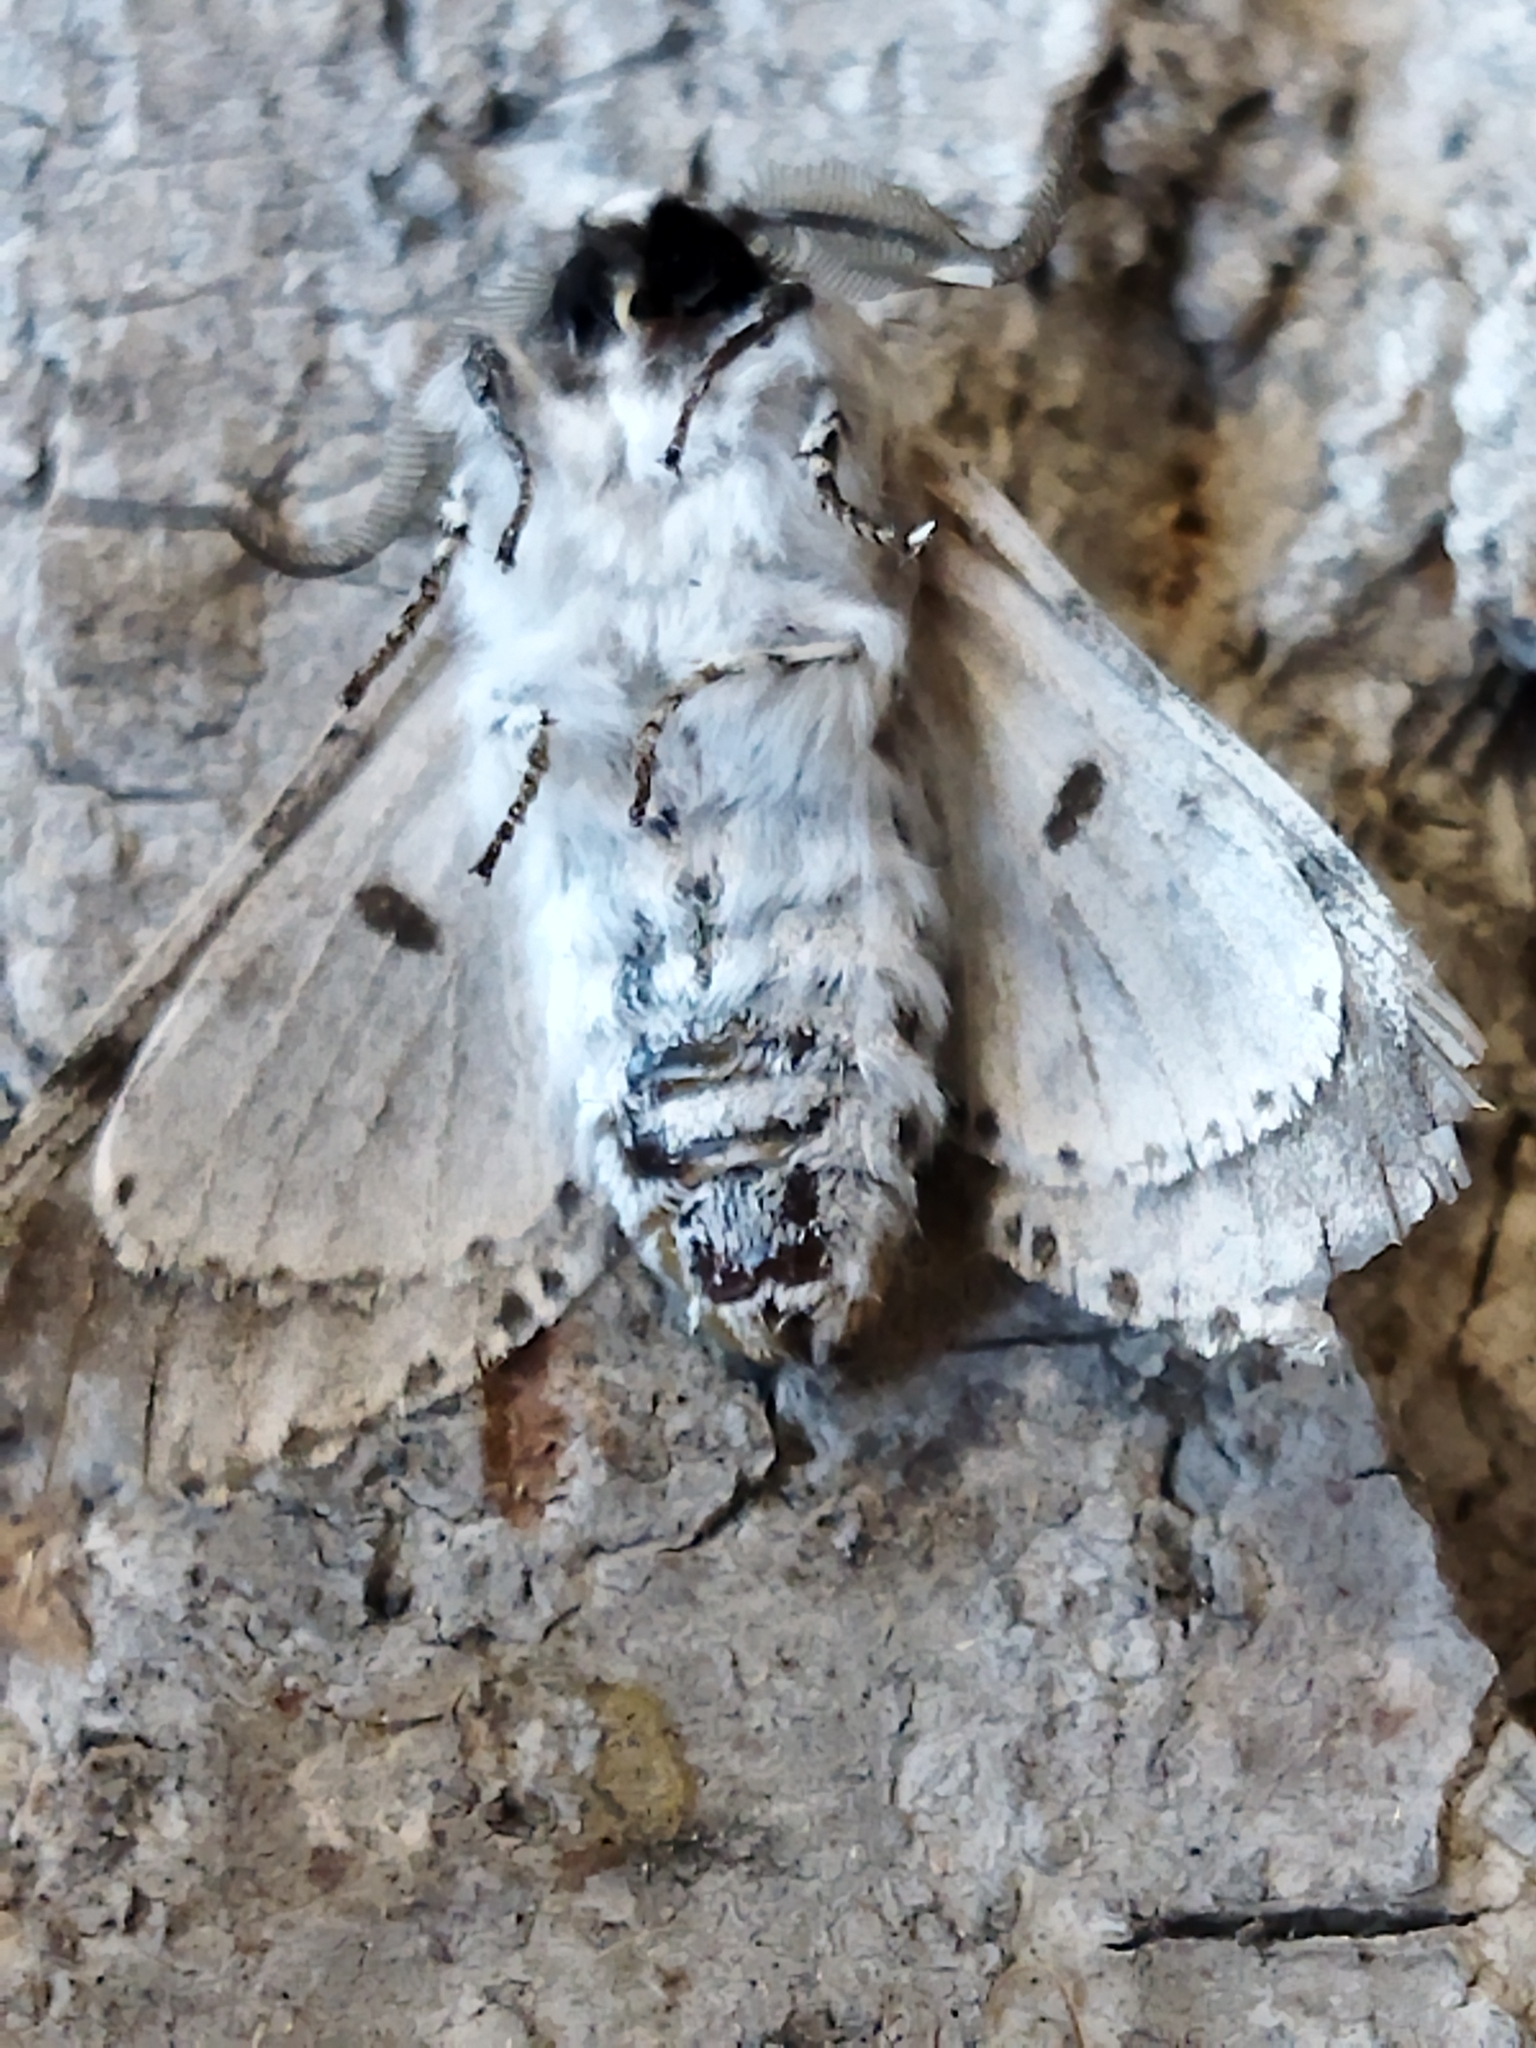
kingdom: Animalia
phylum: Arthropoda
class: Insecta
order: Lepidoptera
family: Notodontidae
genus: Furcula
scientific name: Furcula bifida
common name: Poplar kitten
